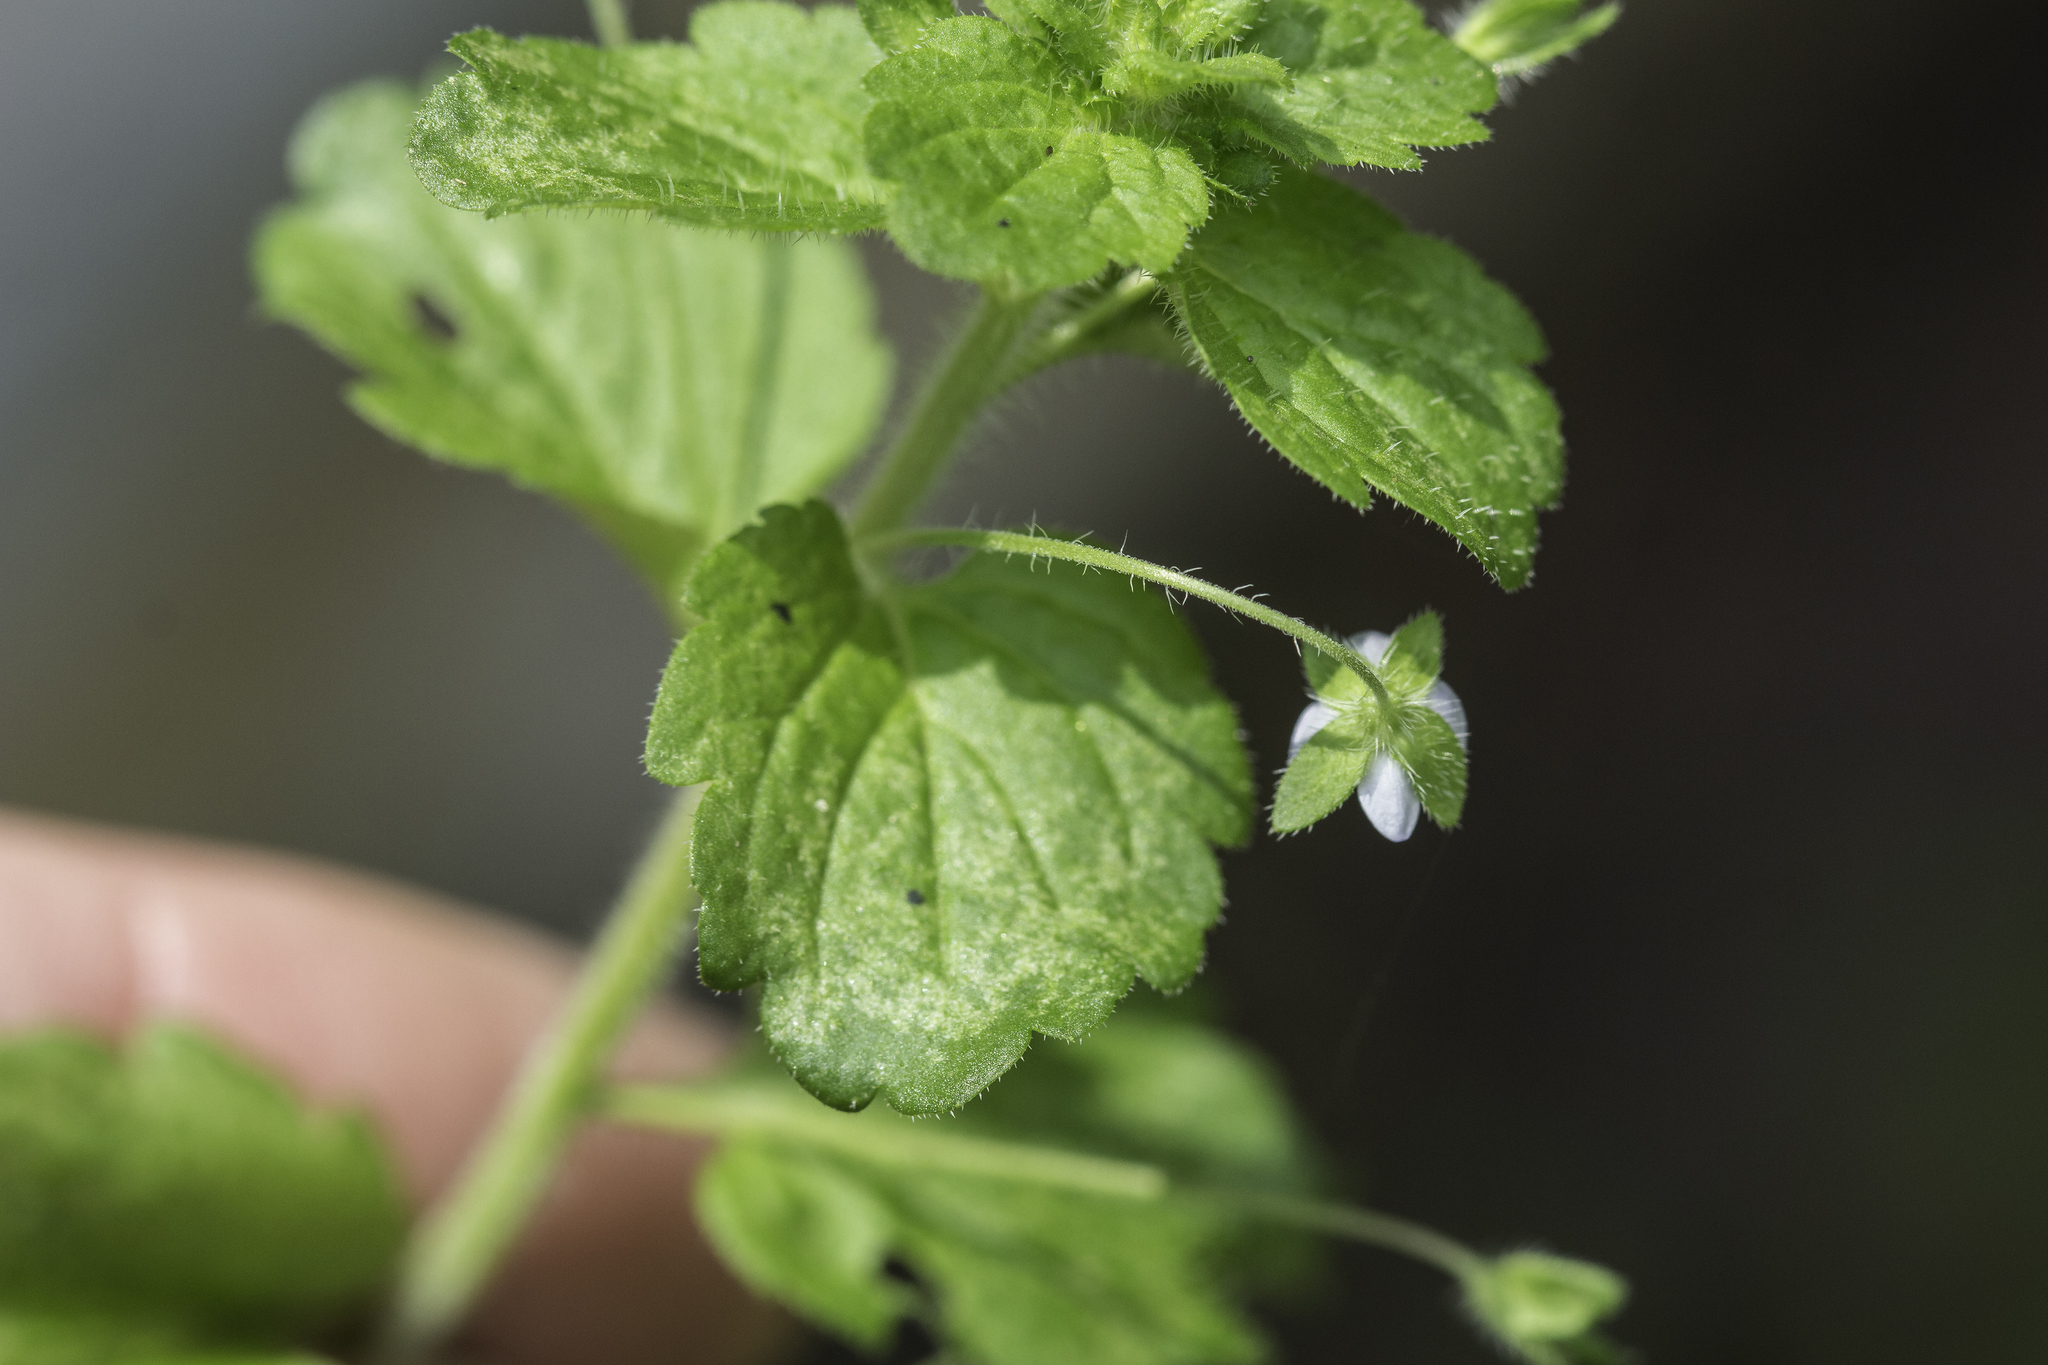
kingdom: Plantae
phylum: Tracheophyta
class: Magnoliopsida
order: Lamiales
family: Plantaginaceae
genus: Veronica
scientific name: Veronica persica
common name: Common field-speedwell
